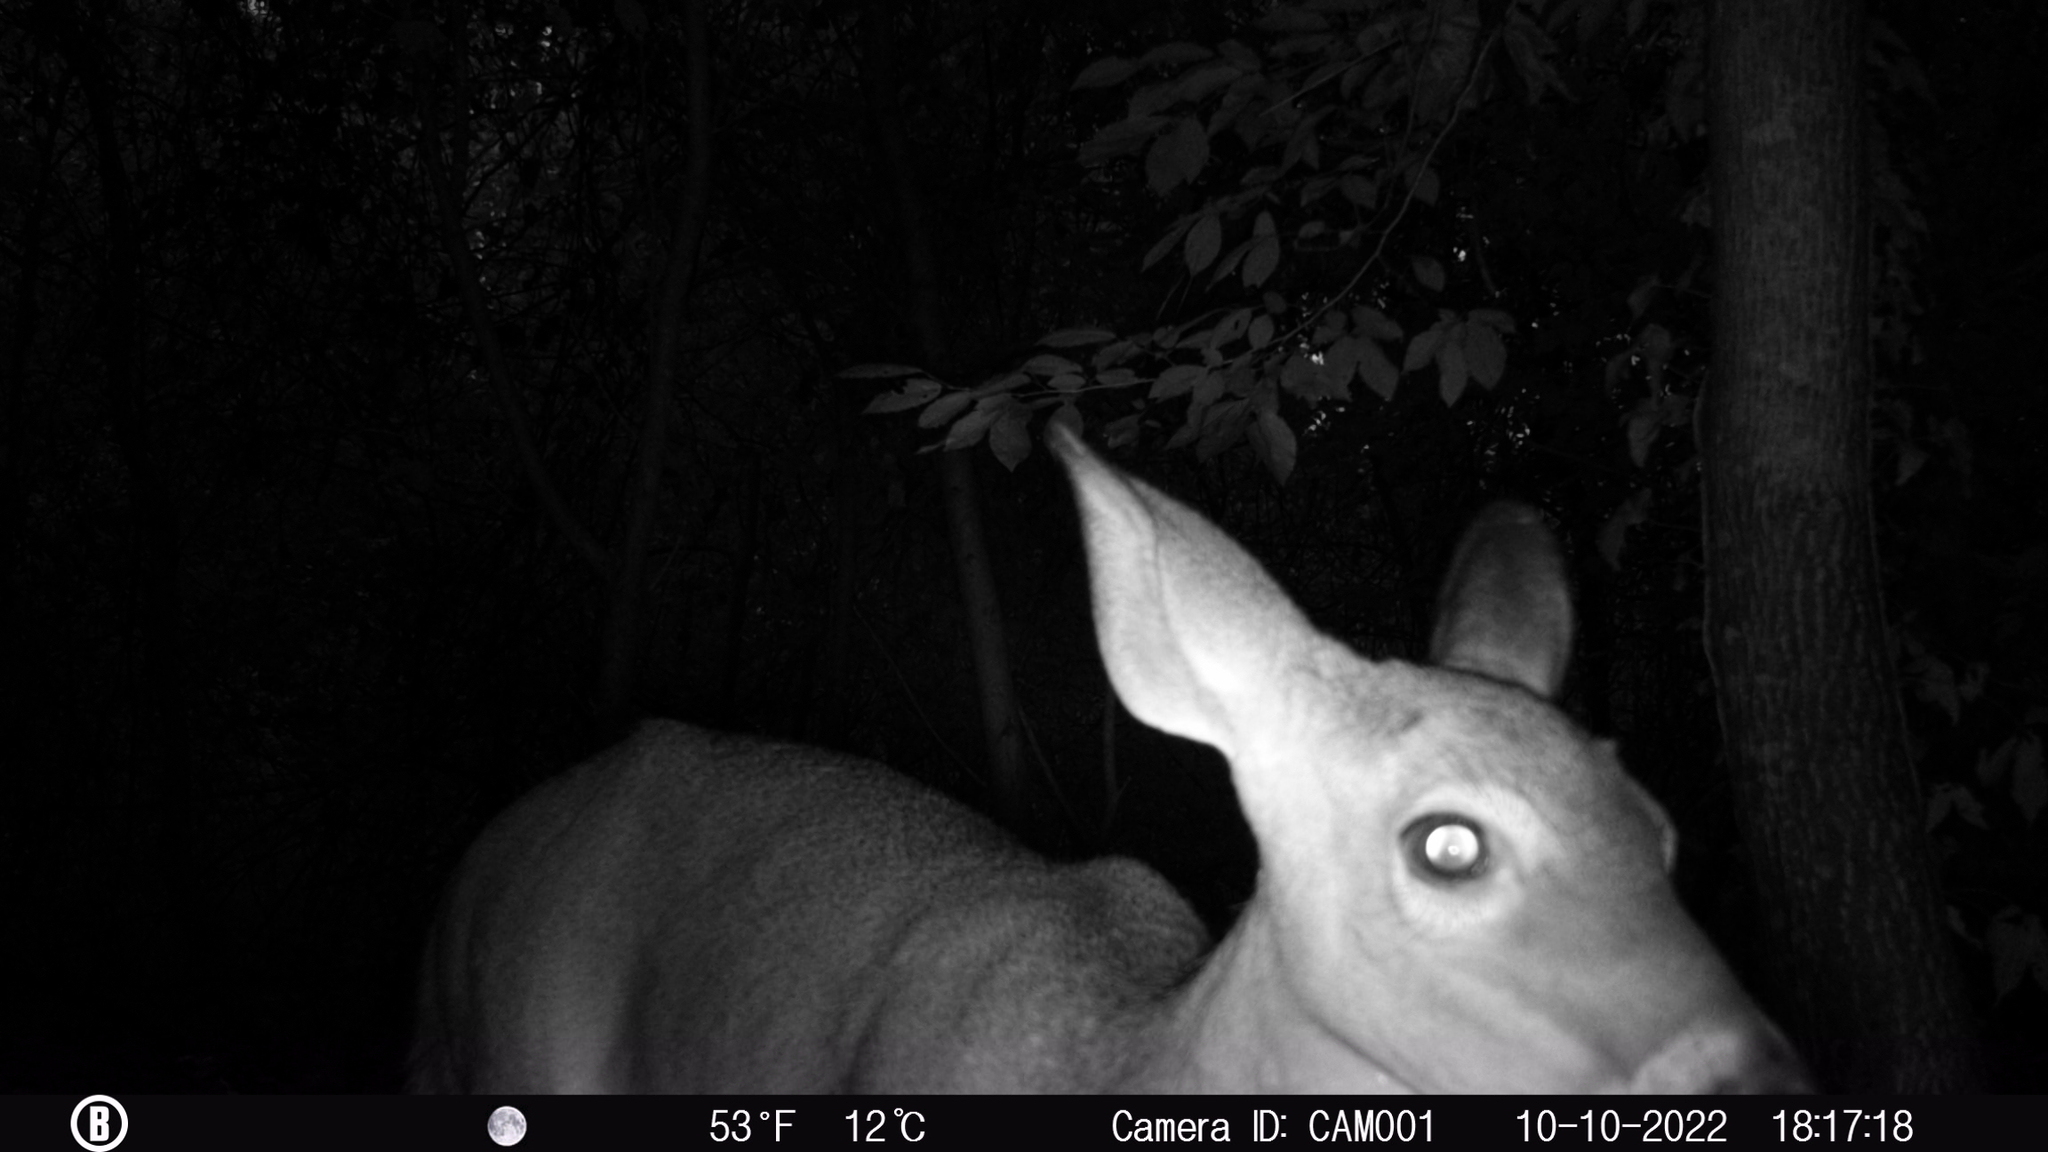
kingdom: Animalia
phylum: Chordata
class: Mammalia
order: Artiodactyla
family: Cervidae
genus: Odocoileus
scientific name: Odocoileus virginianus
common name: White-tailed deer
